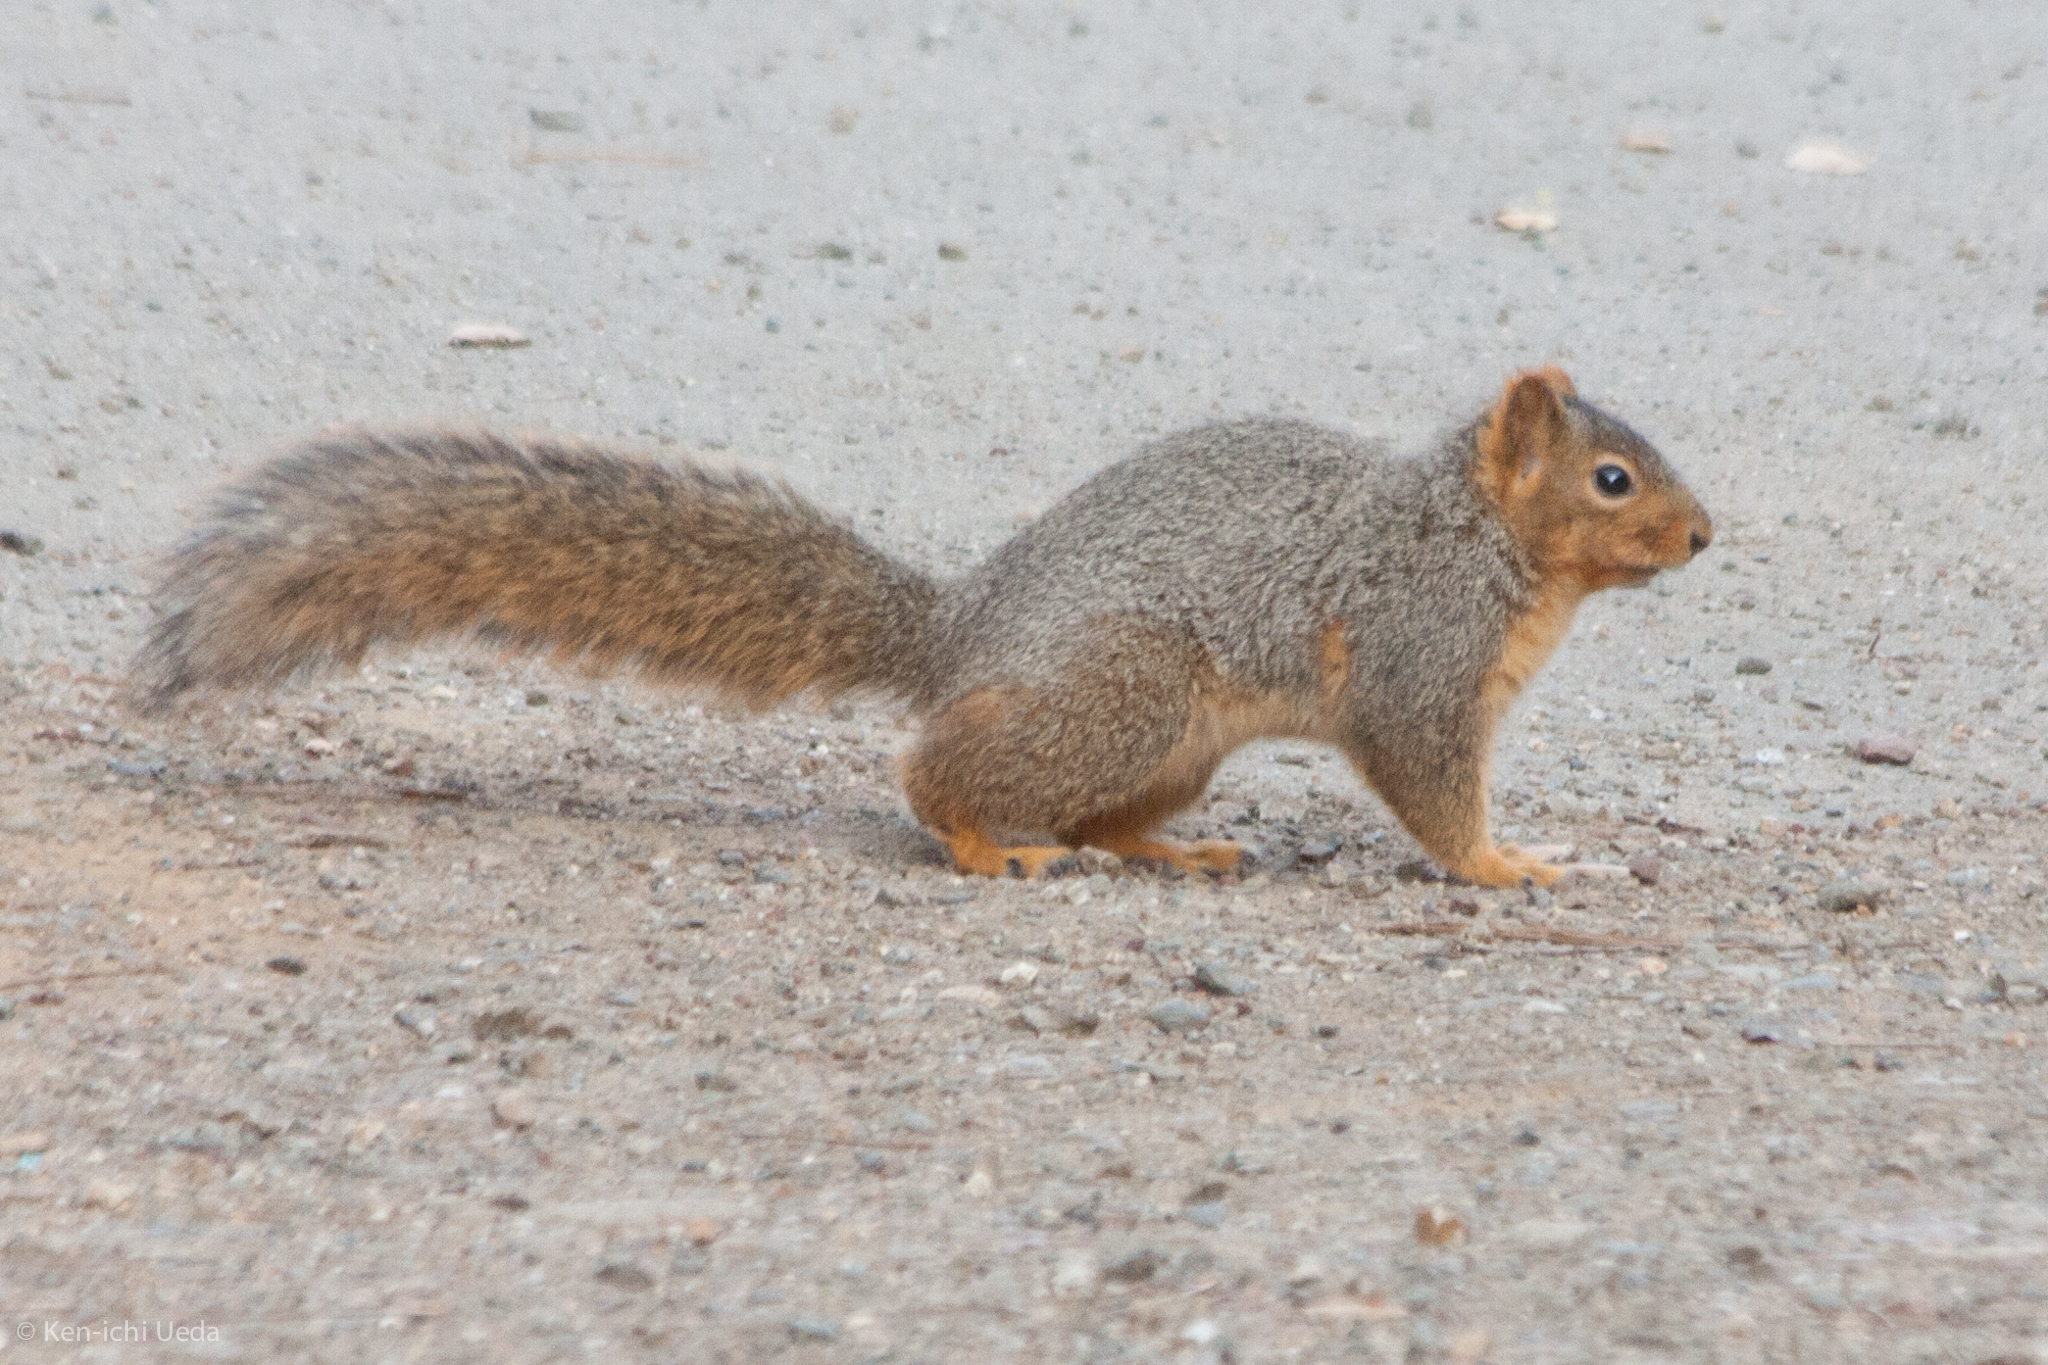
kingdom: Animalia
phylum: Chordata
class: Mammalia
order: Rodentia
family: Sciuridae
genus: Sciurus
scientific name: Sciurus niger
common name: Fox squirrel
